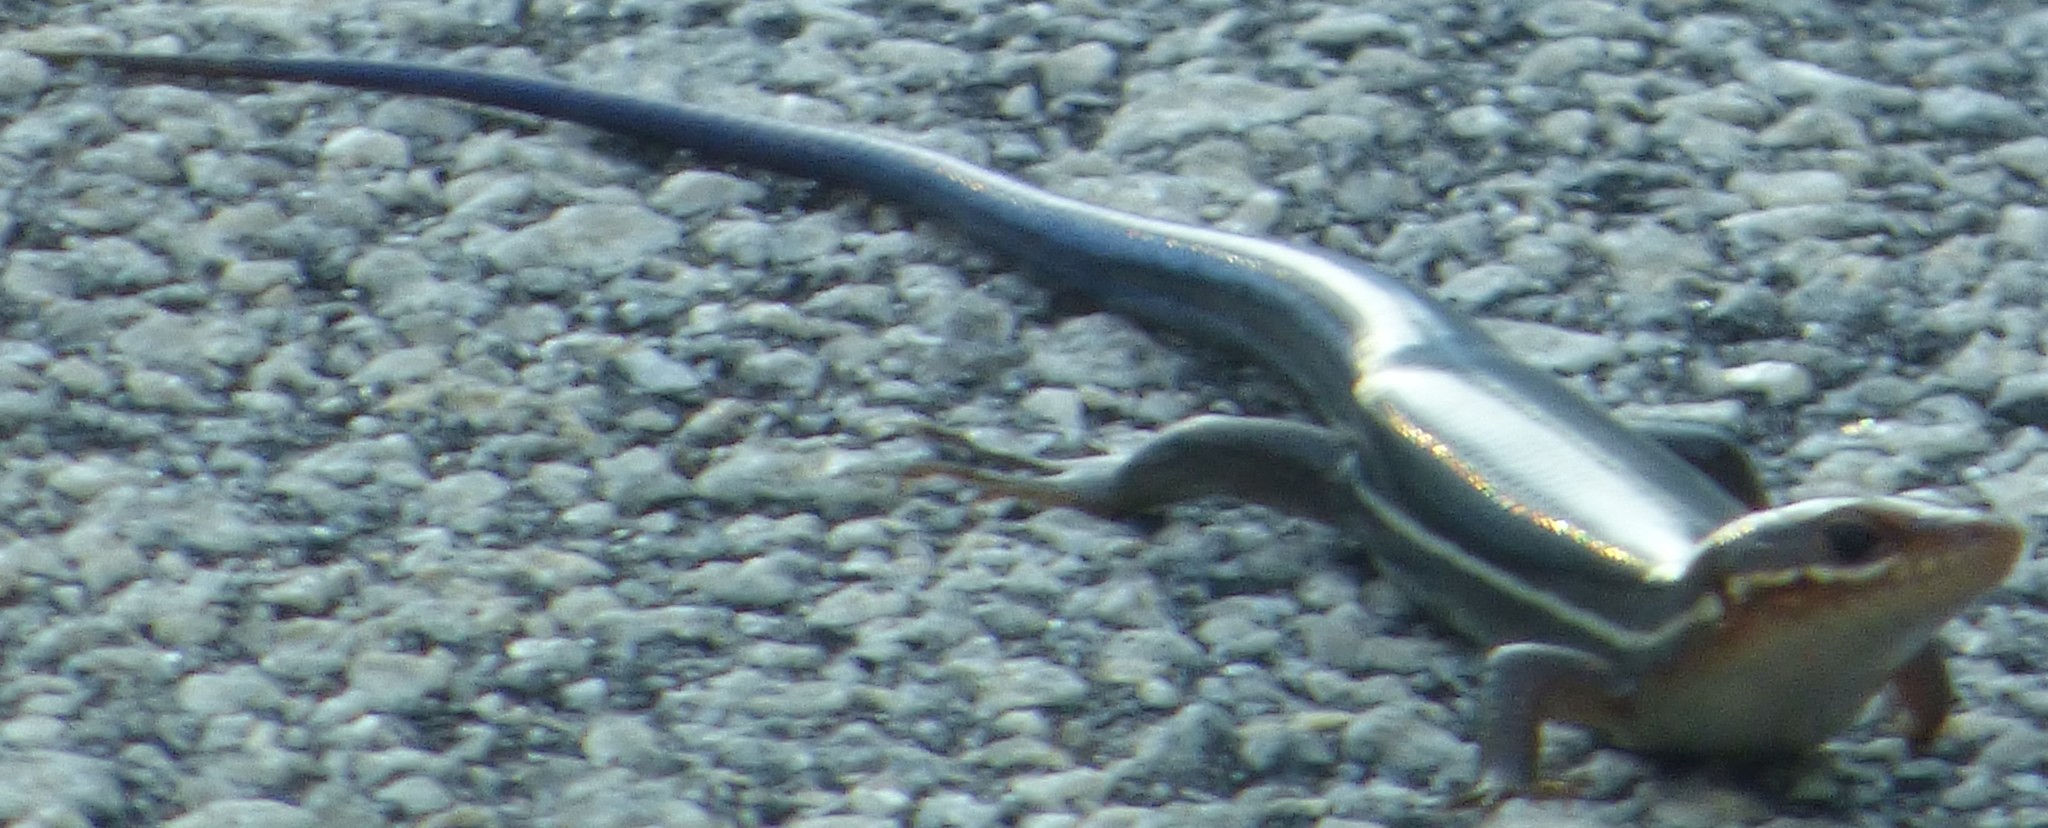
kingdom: Animalia
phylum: Chordata
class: Squamata
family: Scincidae
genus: Plestiodon
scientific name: Plestiodon inexpectatus
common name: Southeastern five-lined skink
